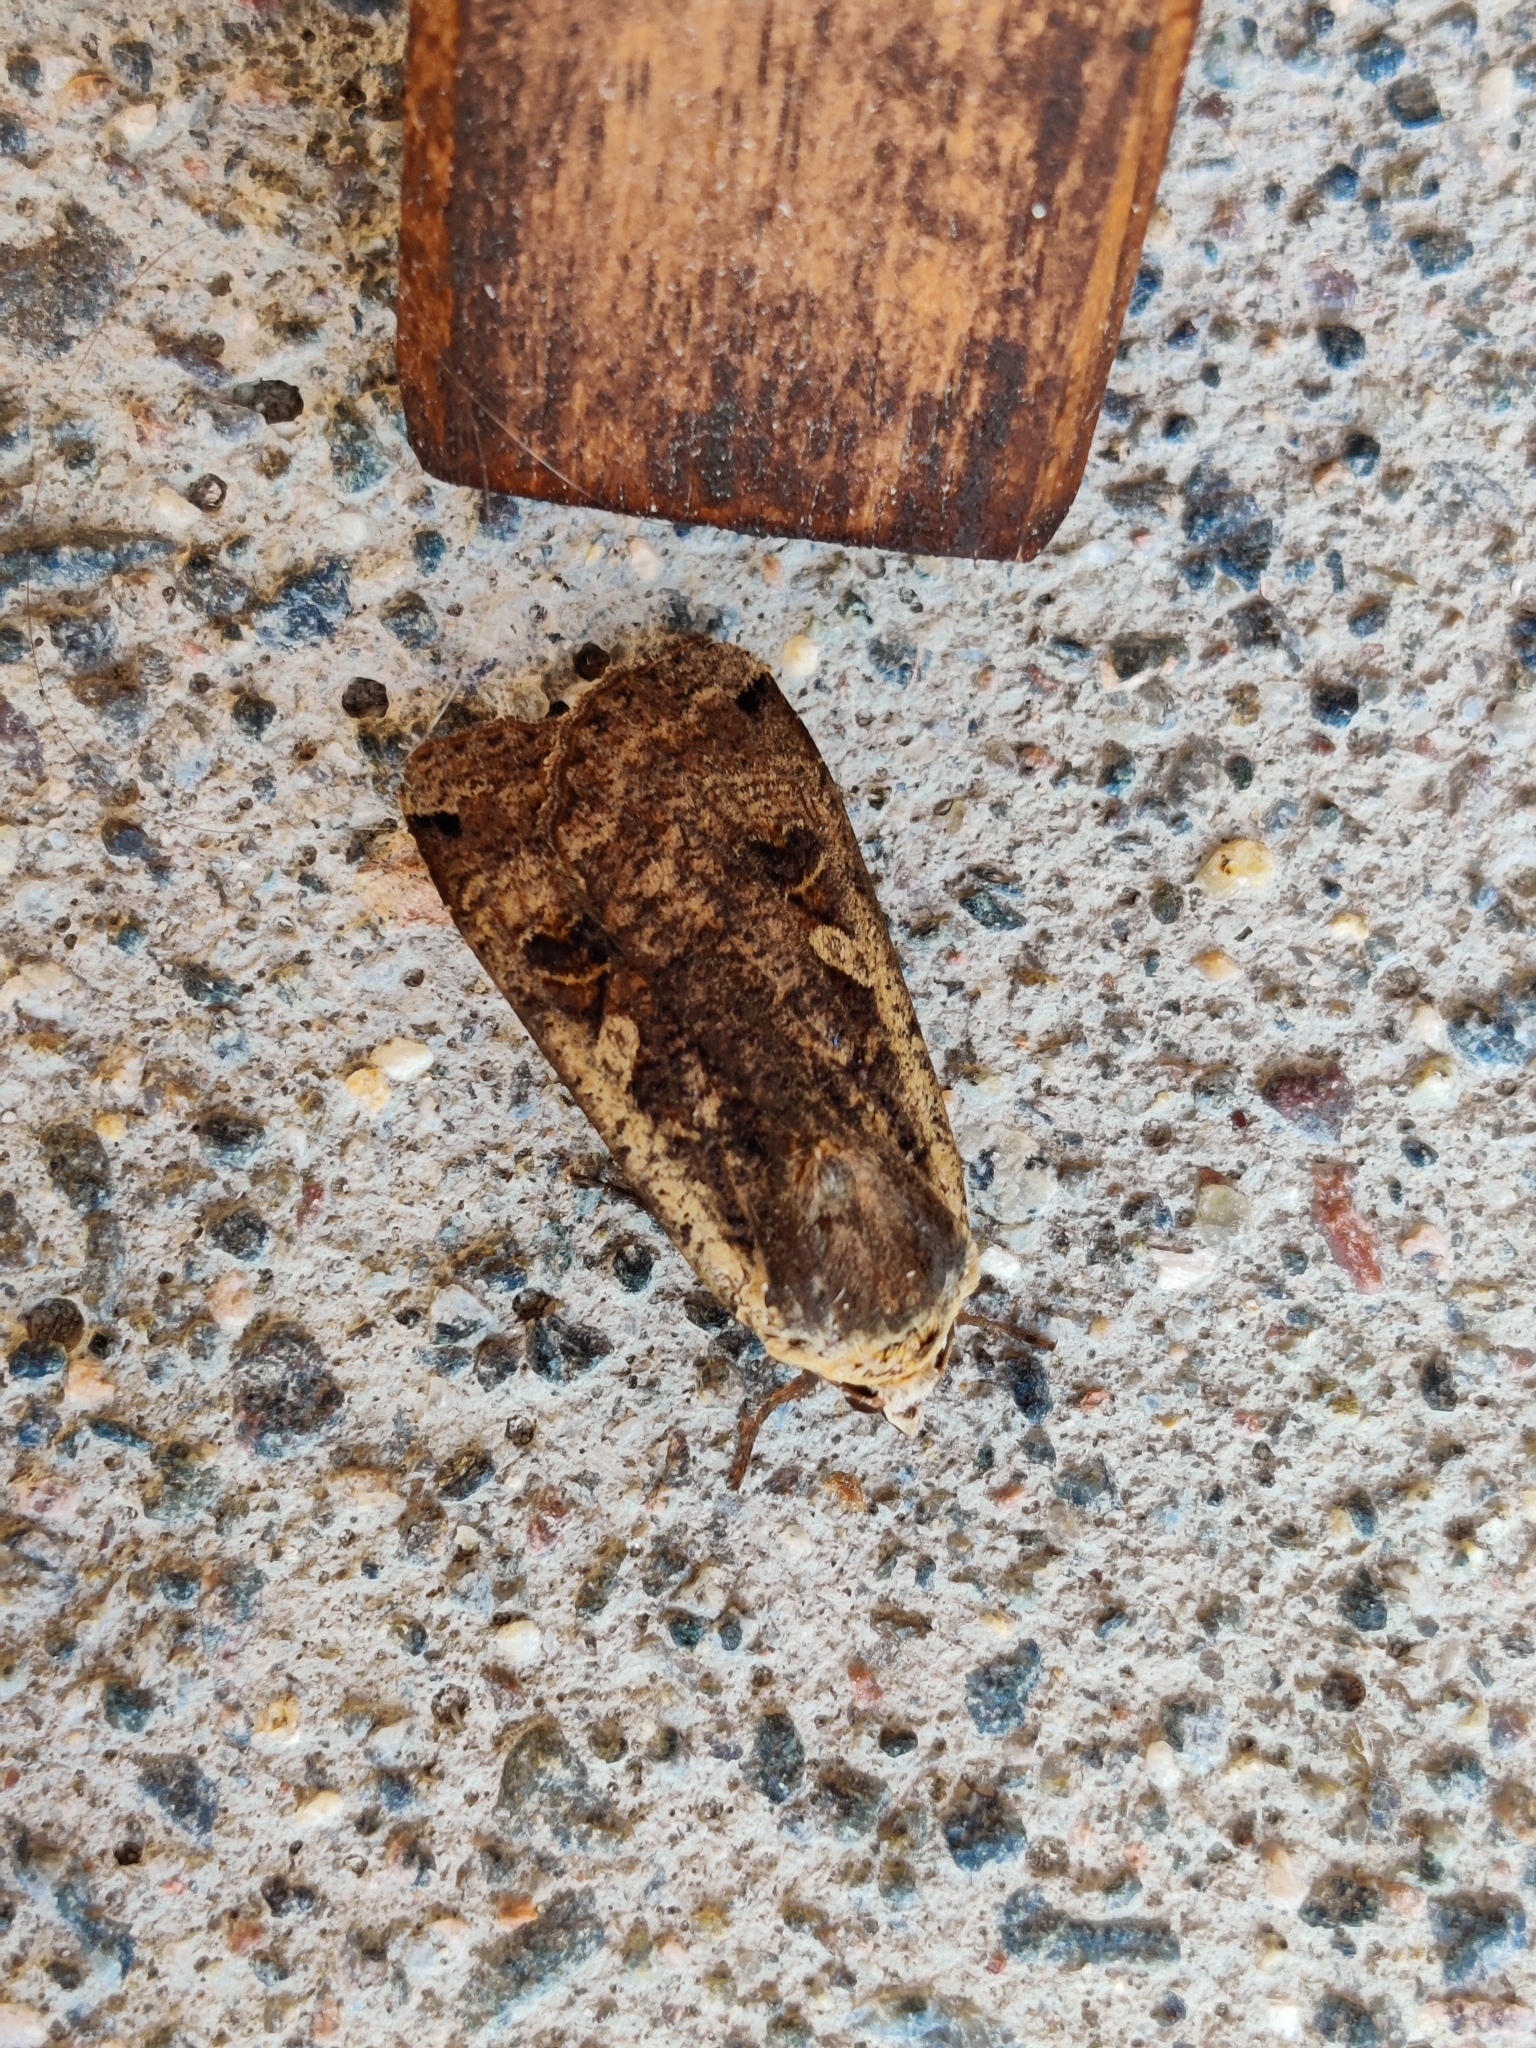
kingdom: Animalia
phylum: Arthropoda
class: Insecta
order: Lepidoptera
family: Noctuidae
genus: Noctua
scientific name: Noctua pronuba
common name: Large yellow underwing
